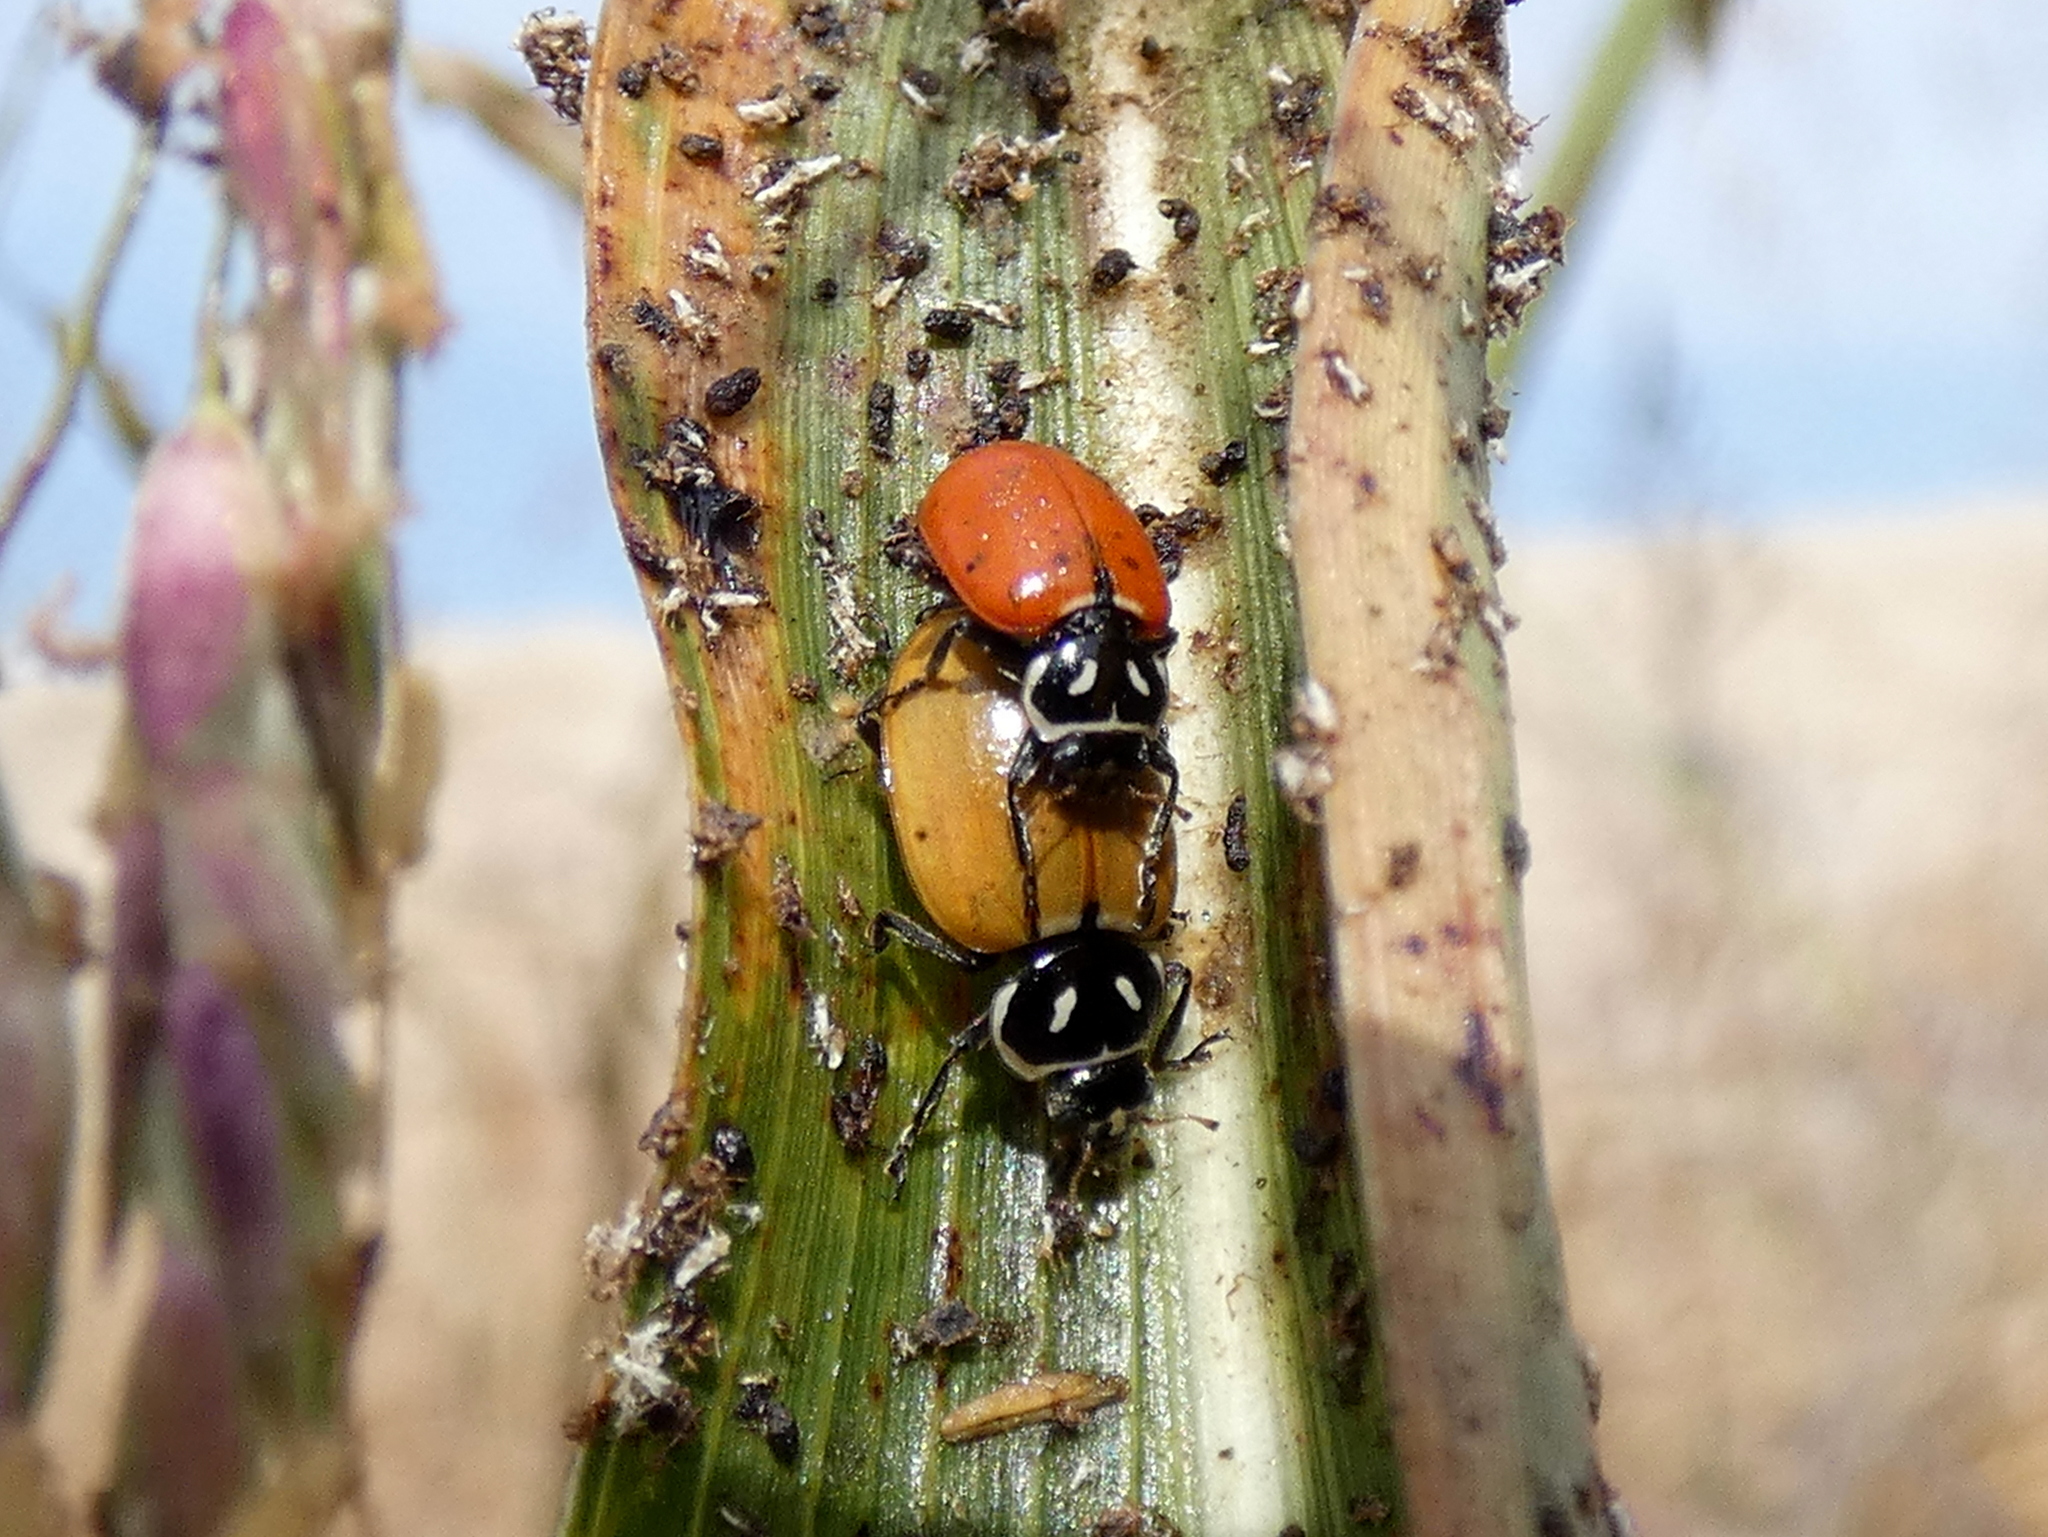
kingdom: Animalia
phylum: Arthropoda
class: Insecta
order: Coleoptera
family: Coccinellidae
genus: Hippodamia
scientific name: Hippodamia convergens
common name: Convergent lady beetle
